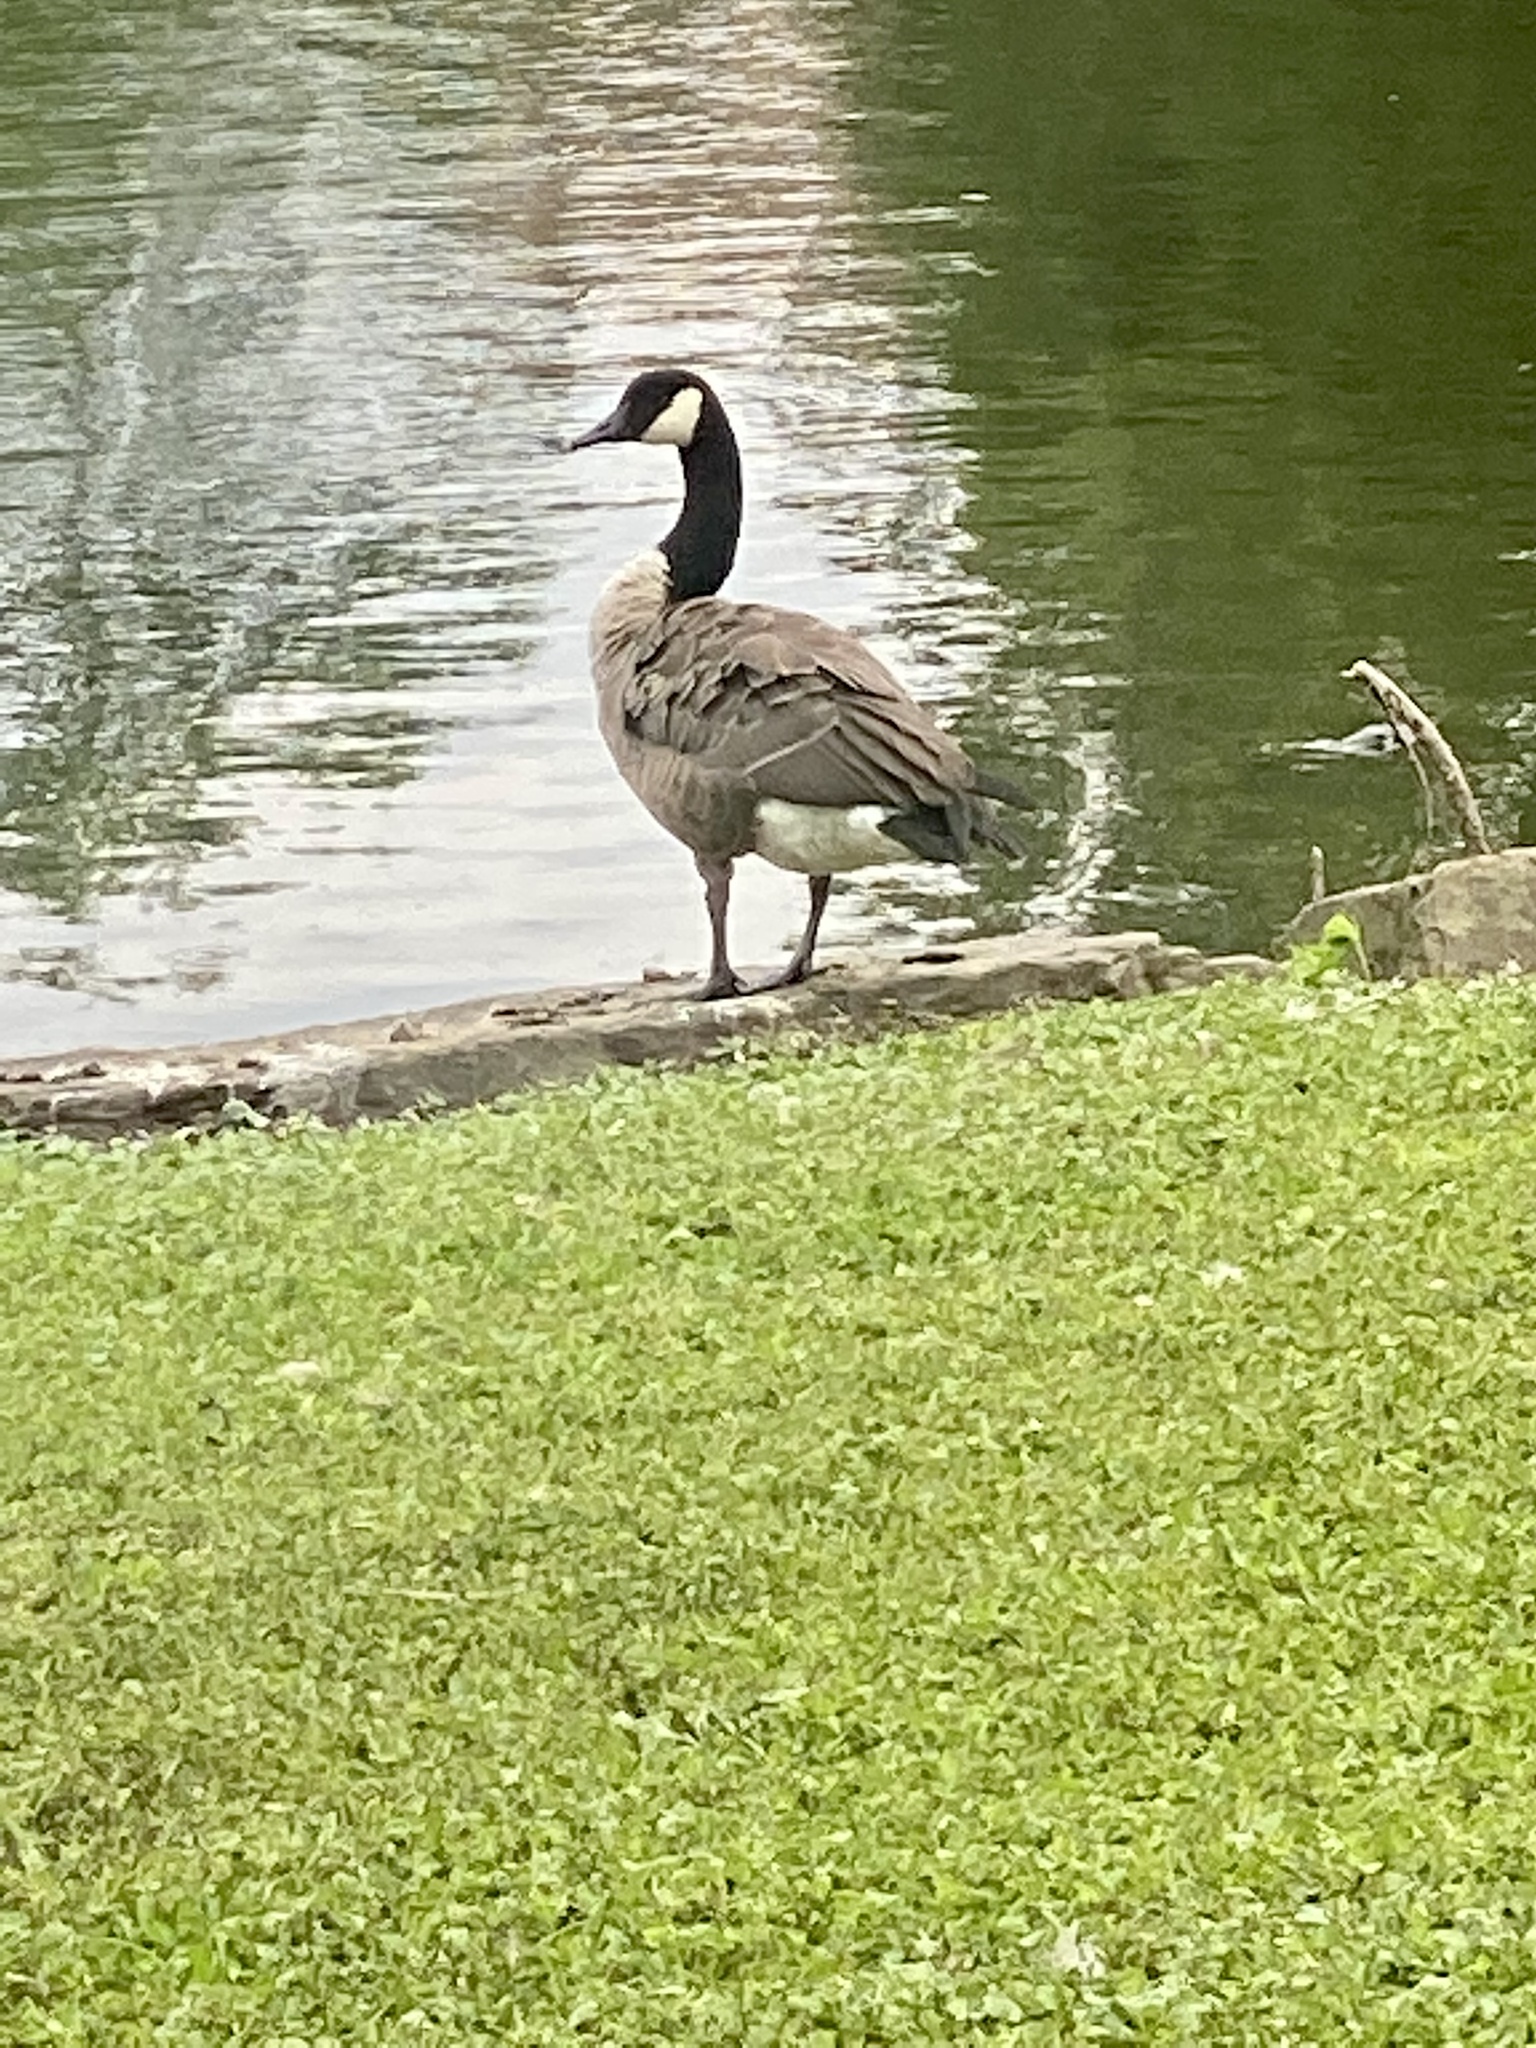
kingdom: Animalia
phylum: Chordata
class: Aves
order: Anseriformes
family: Anatidae
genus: Branta
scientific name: Branta canadensis
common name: Canada goose
